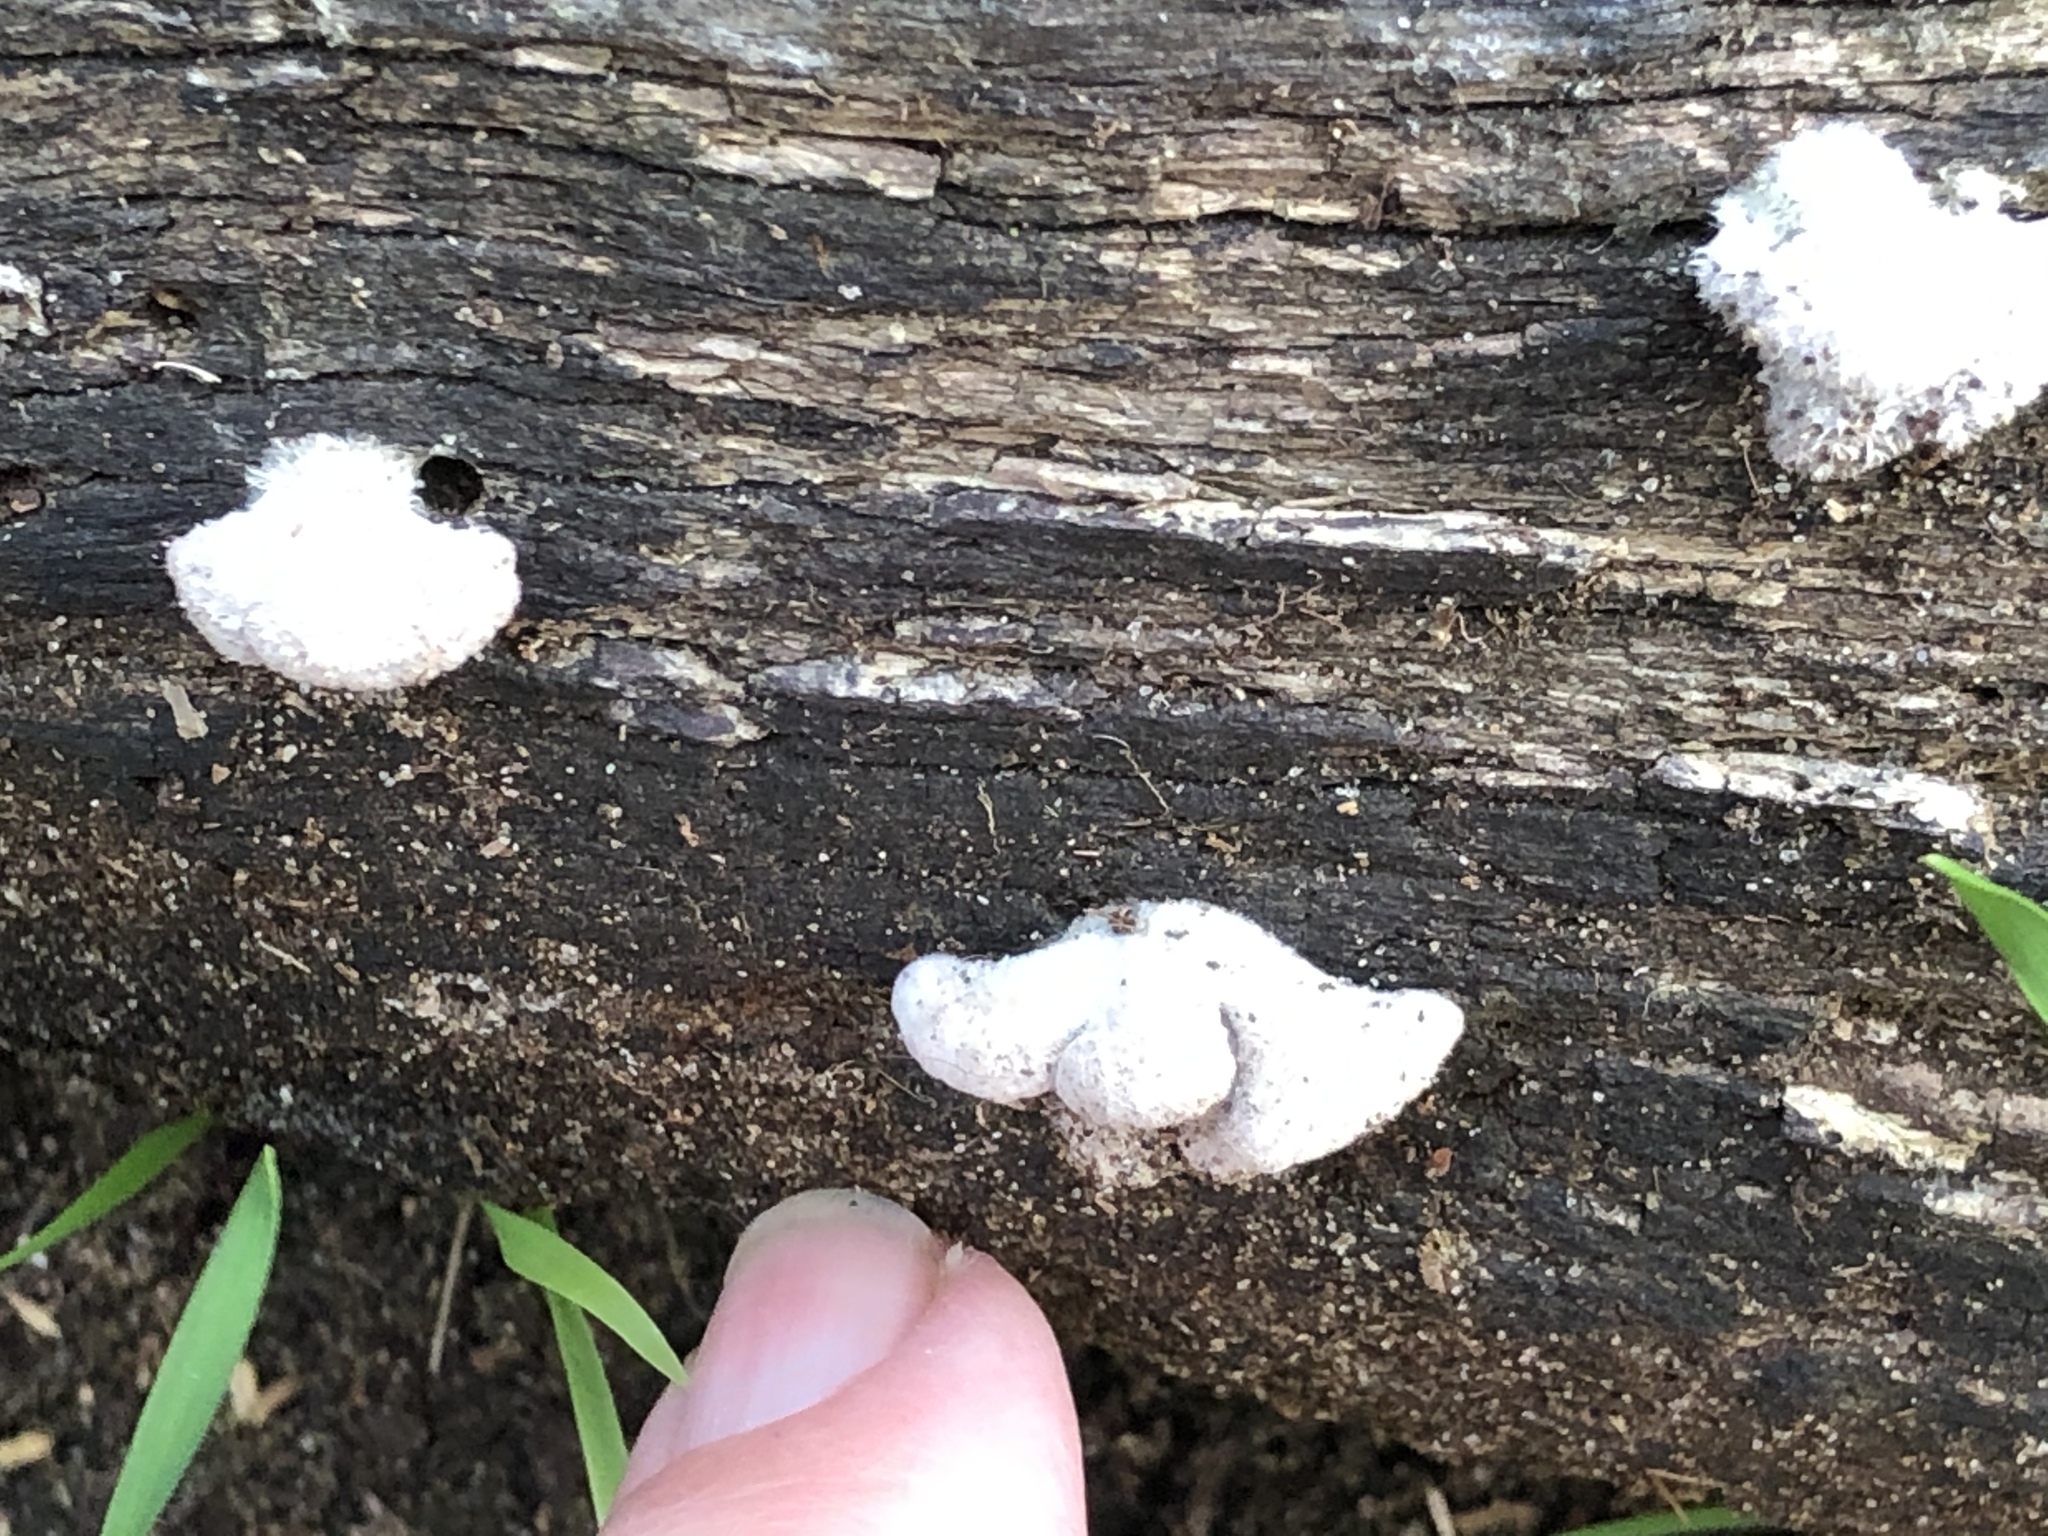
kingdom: Fungi
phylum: Basidiomycota
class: Agaricomycetes
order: Agaricales
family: Schizophyllaceae
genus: Schizophyllum
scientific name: Schizophyllum commune
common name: Common porecrust
